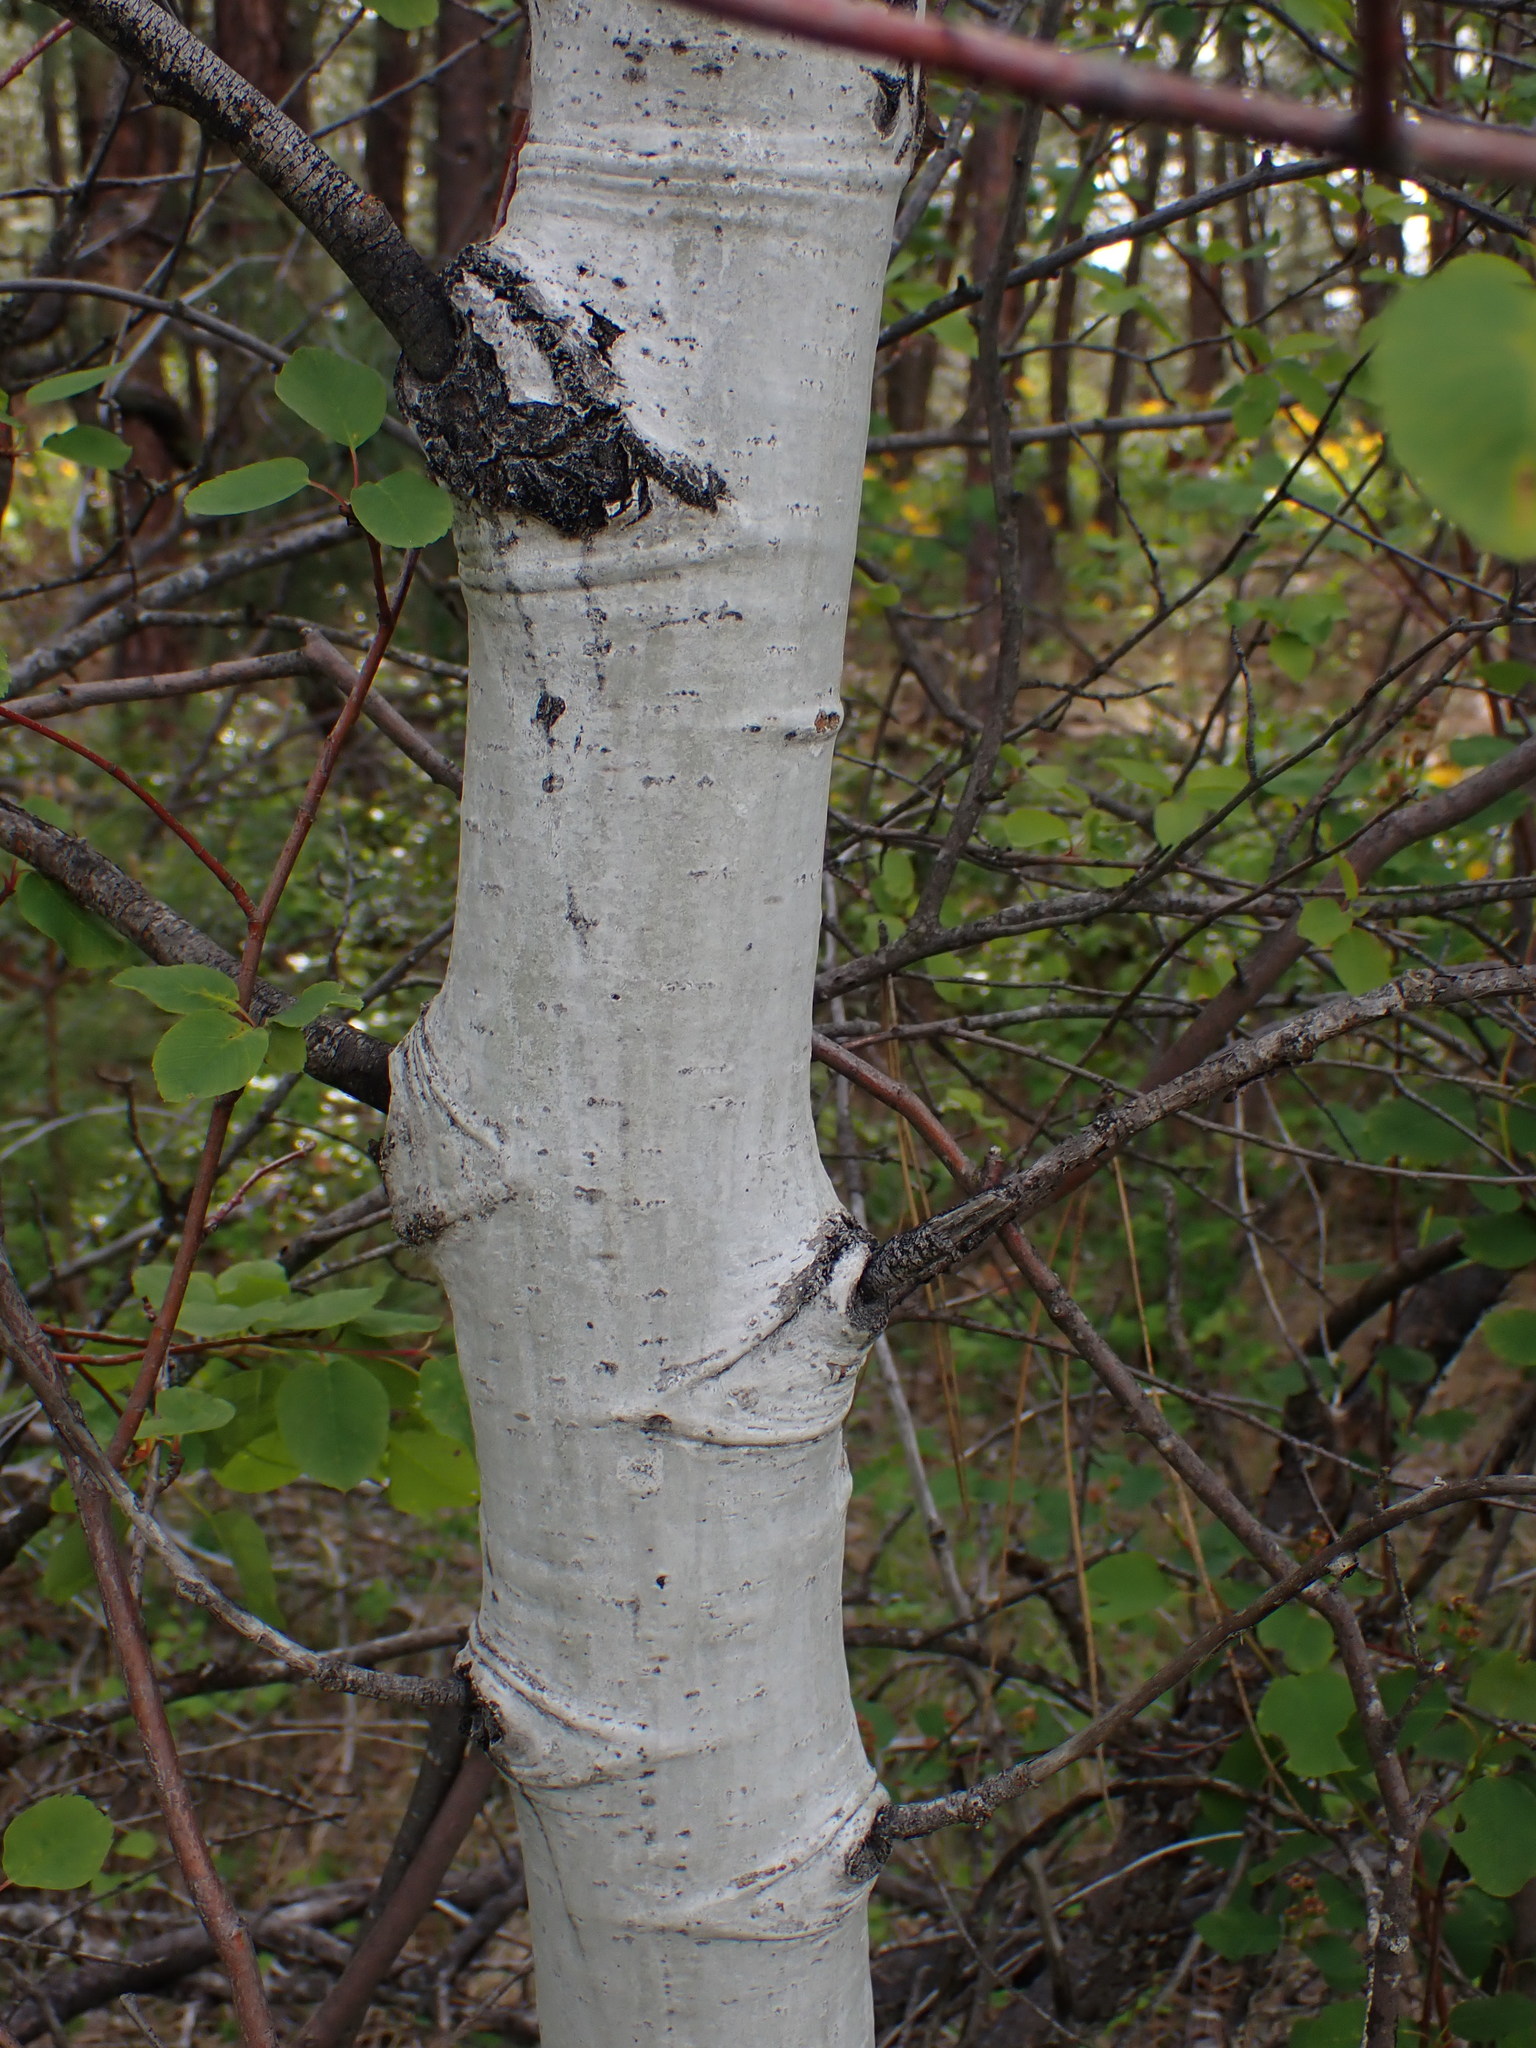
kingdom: Plantae
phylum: Tracheophyta
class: Magnoliopsida
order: Malpighiales
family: Salicaceae
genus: Populus
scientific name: Populus tremuloides
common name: Quaking aspen
